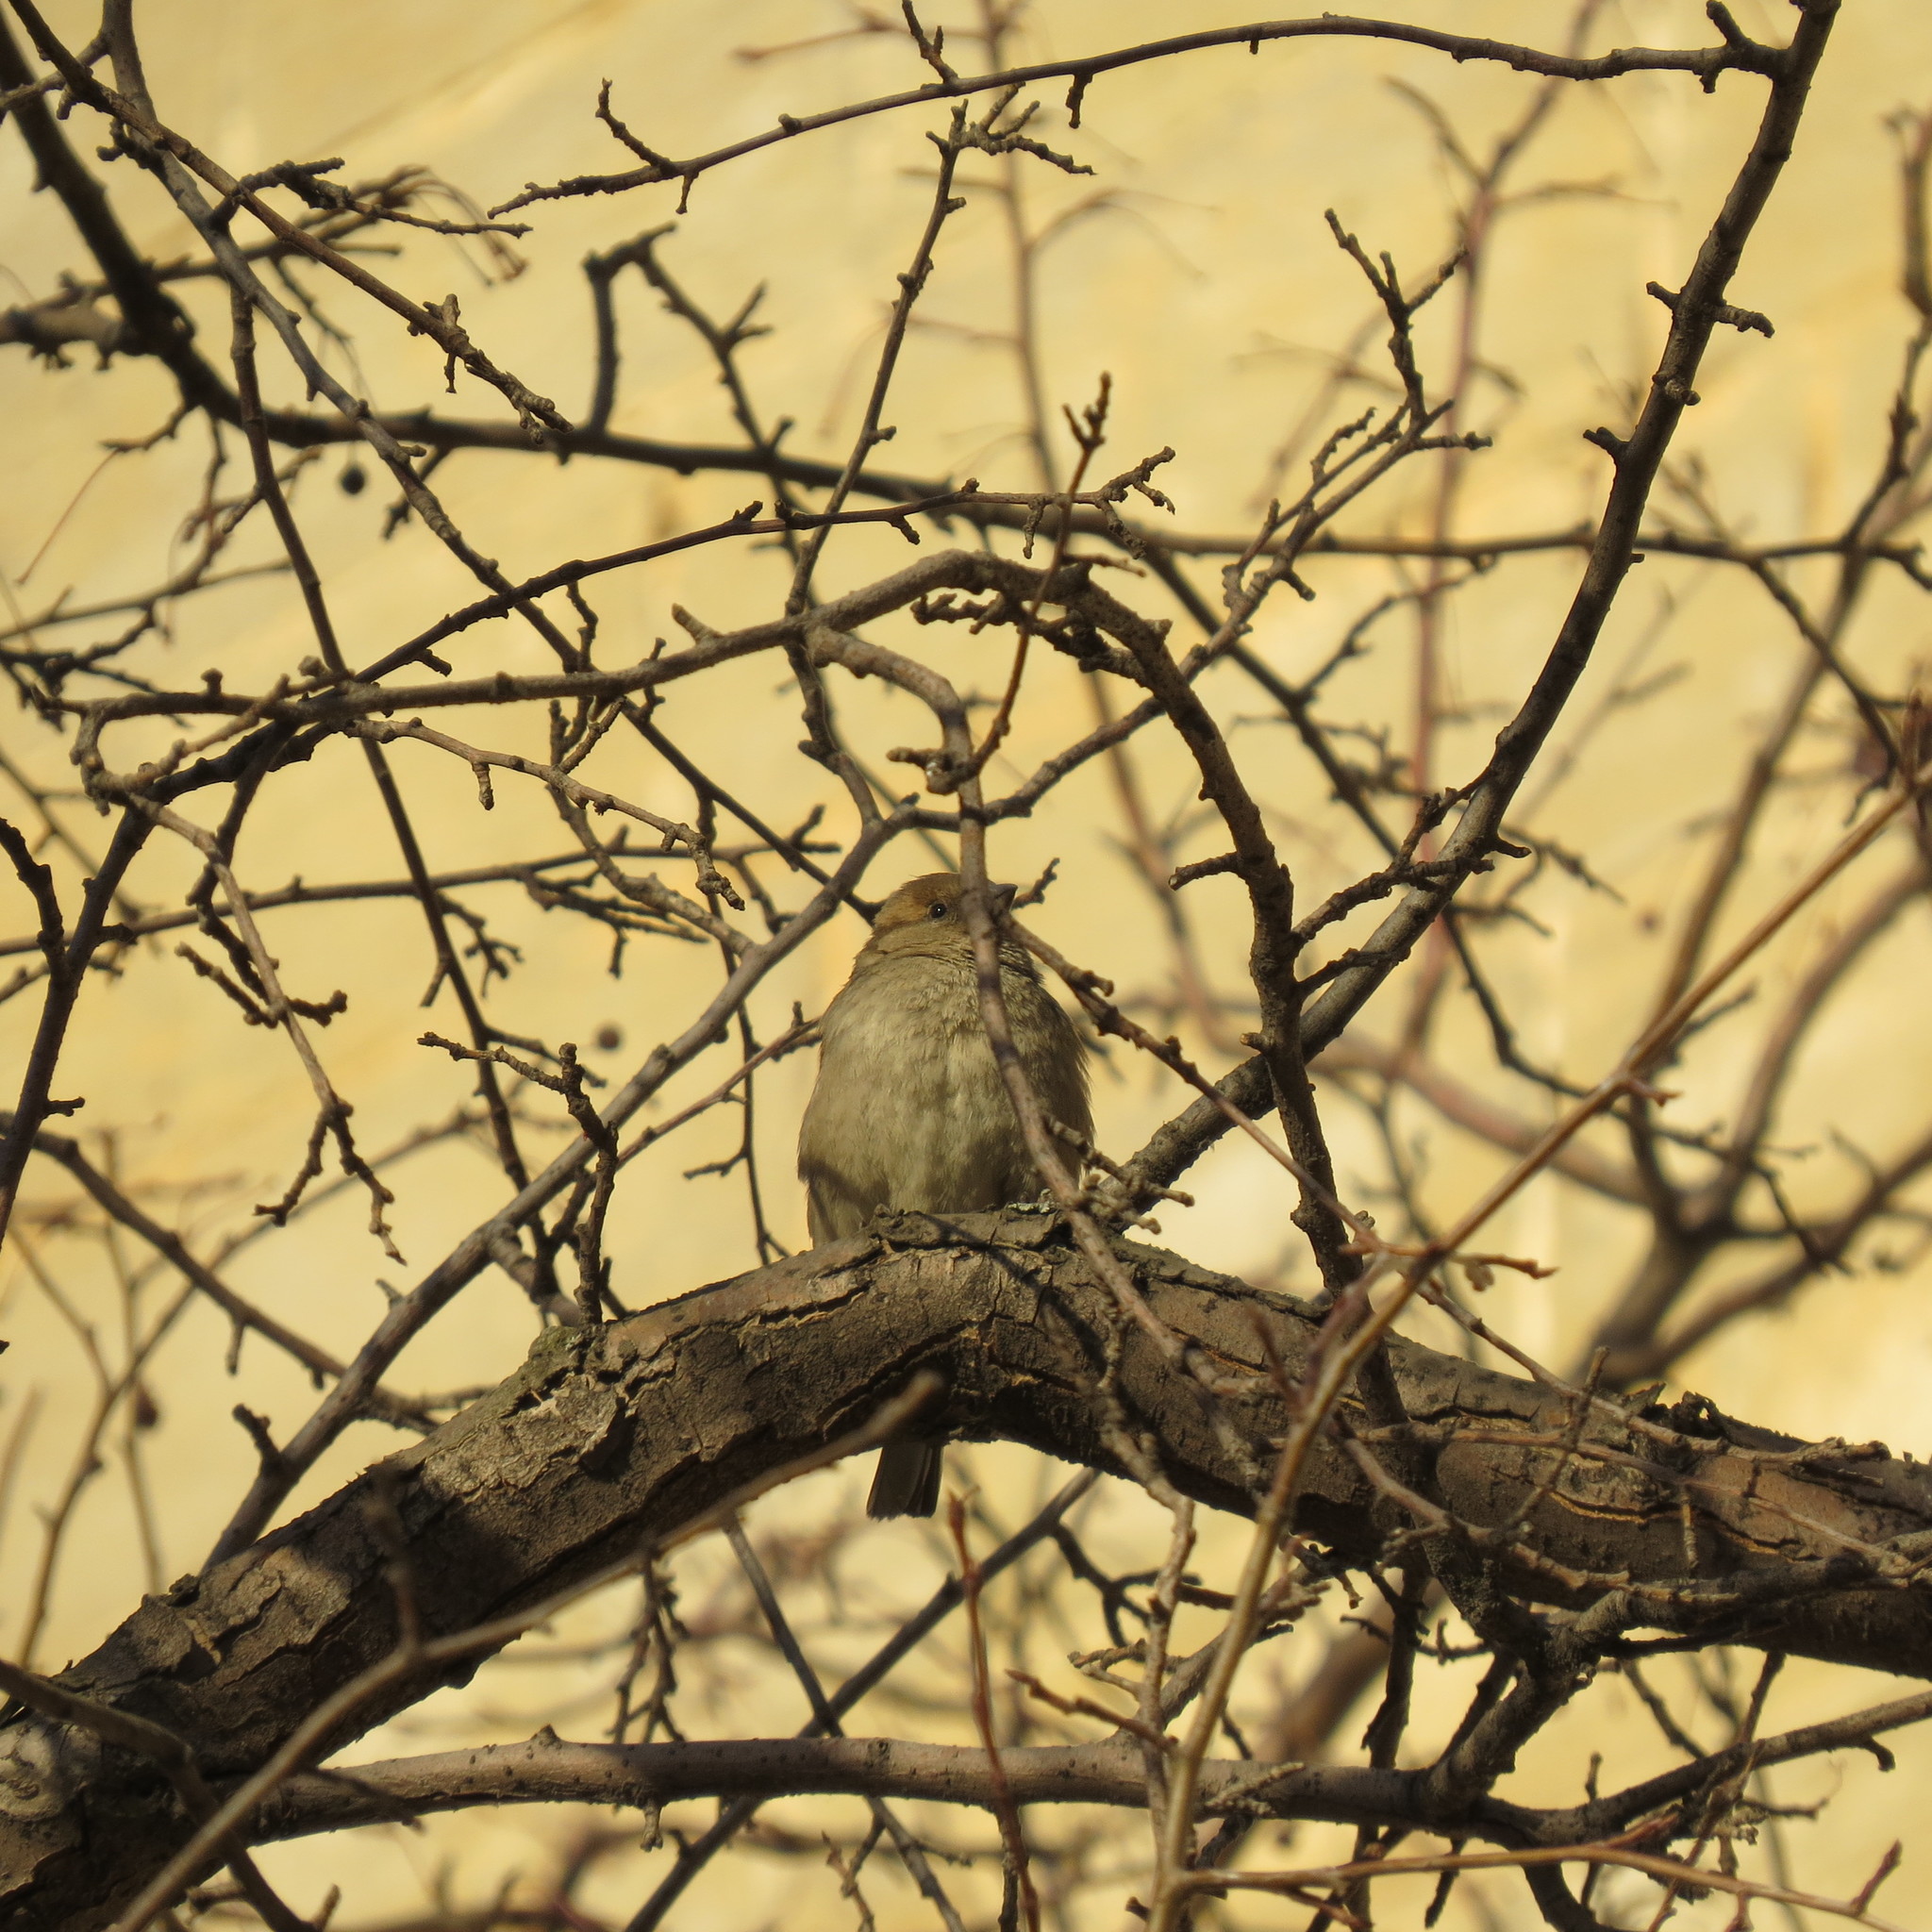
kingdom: Animalia
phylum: Chordata
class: Aves
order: Passeriformes
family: Passeridae
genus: Passer
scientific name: Passer domesticus
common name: House sparrow
